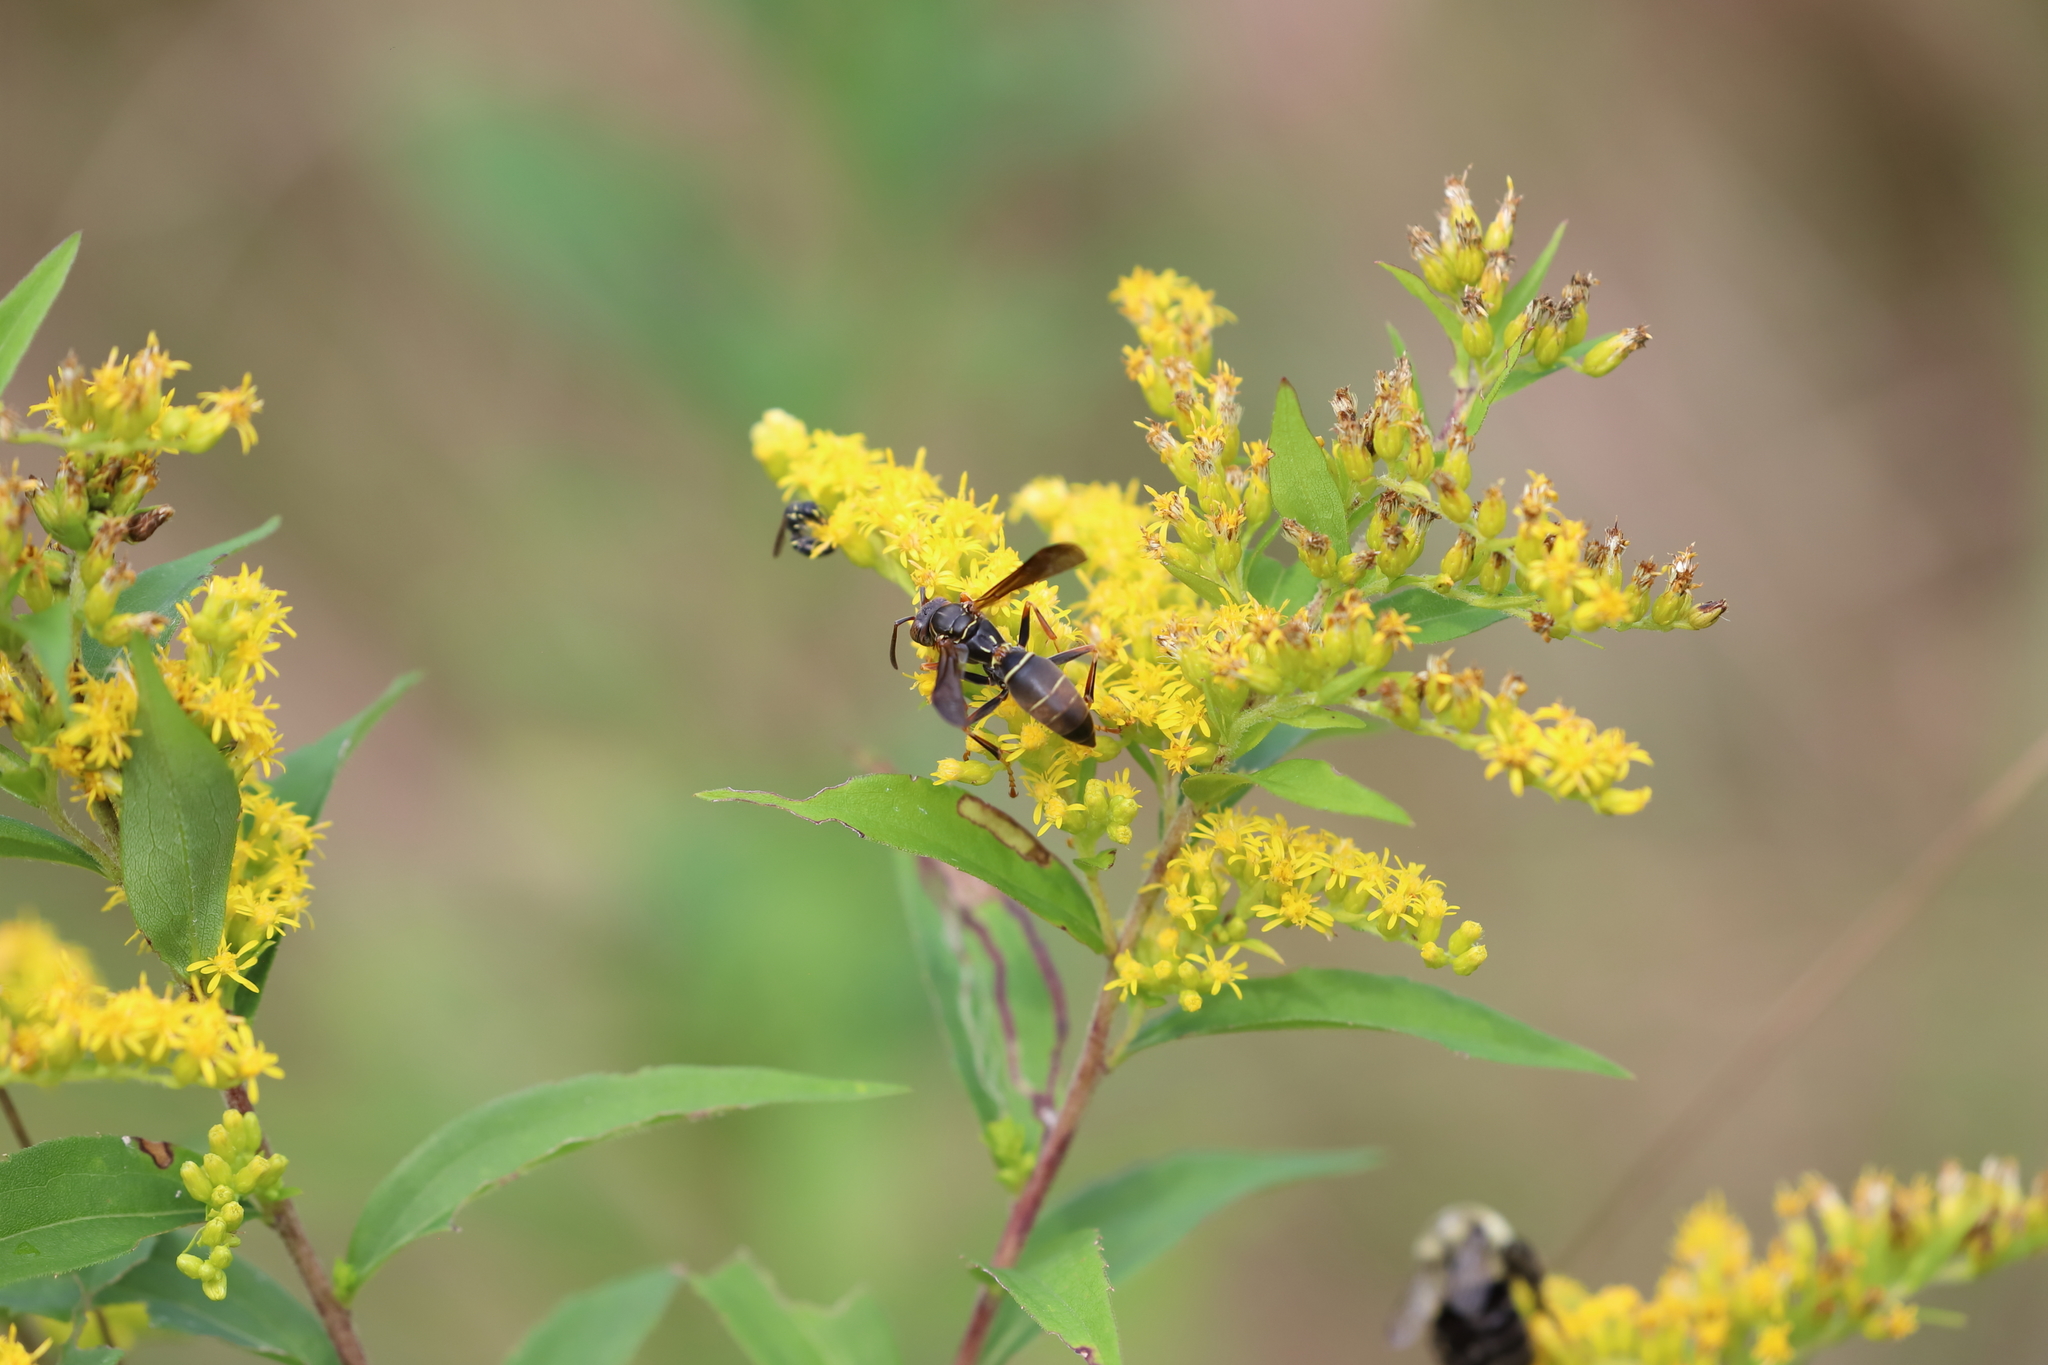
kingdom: Animalia
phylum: Arthropoda
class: Insecta
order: Hymenoptera
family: Eumenidae
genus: Polistes
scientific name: Polistes fuscatus
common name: Dark paper wasp
